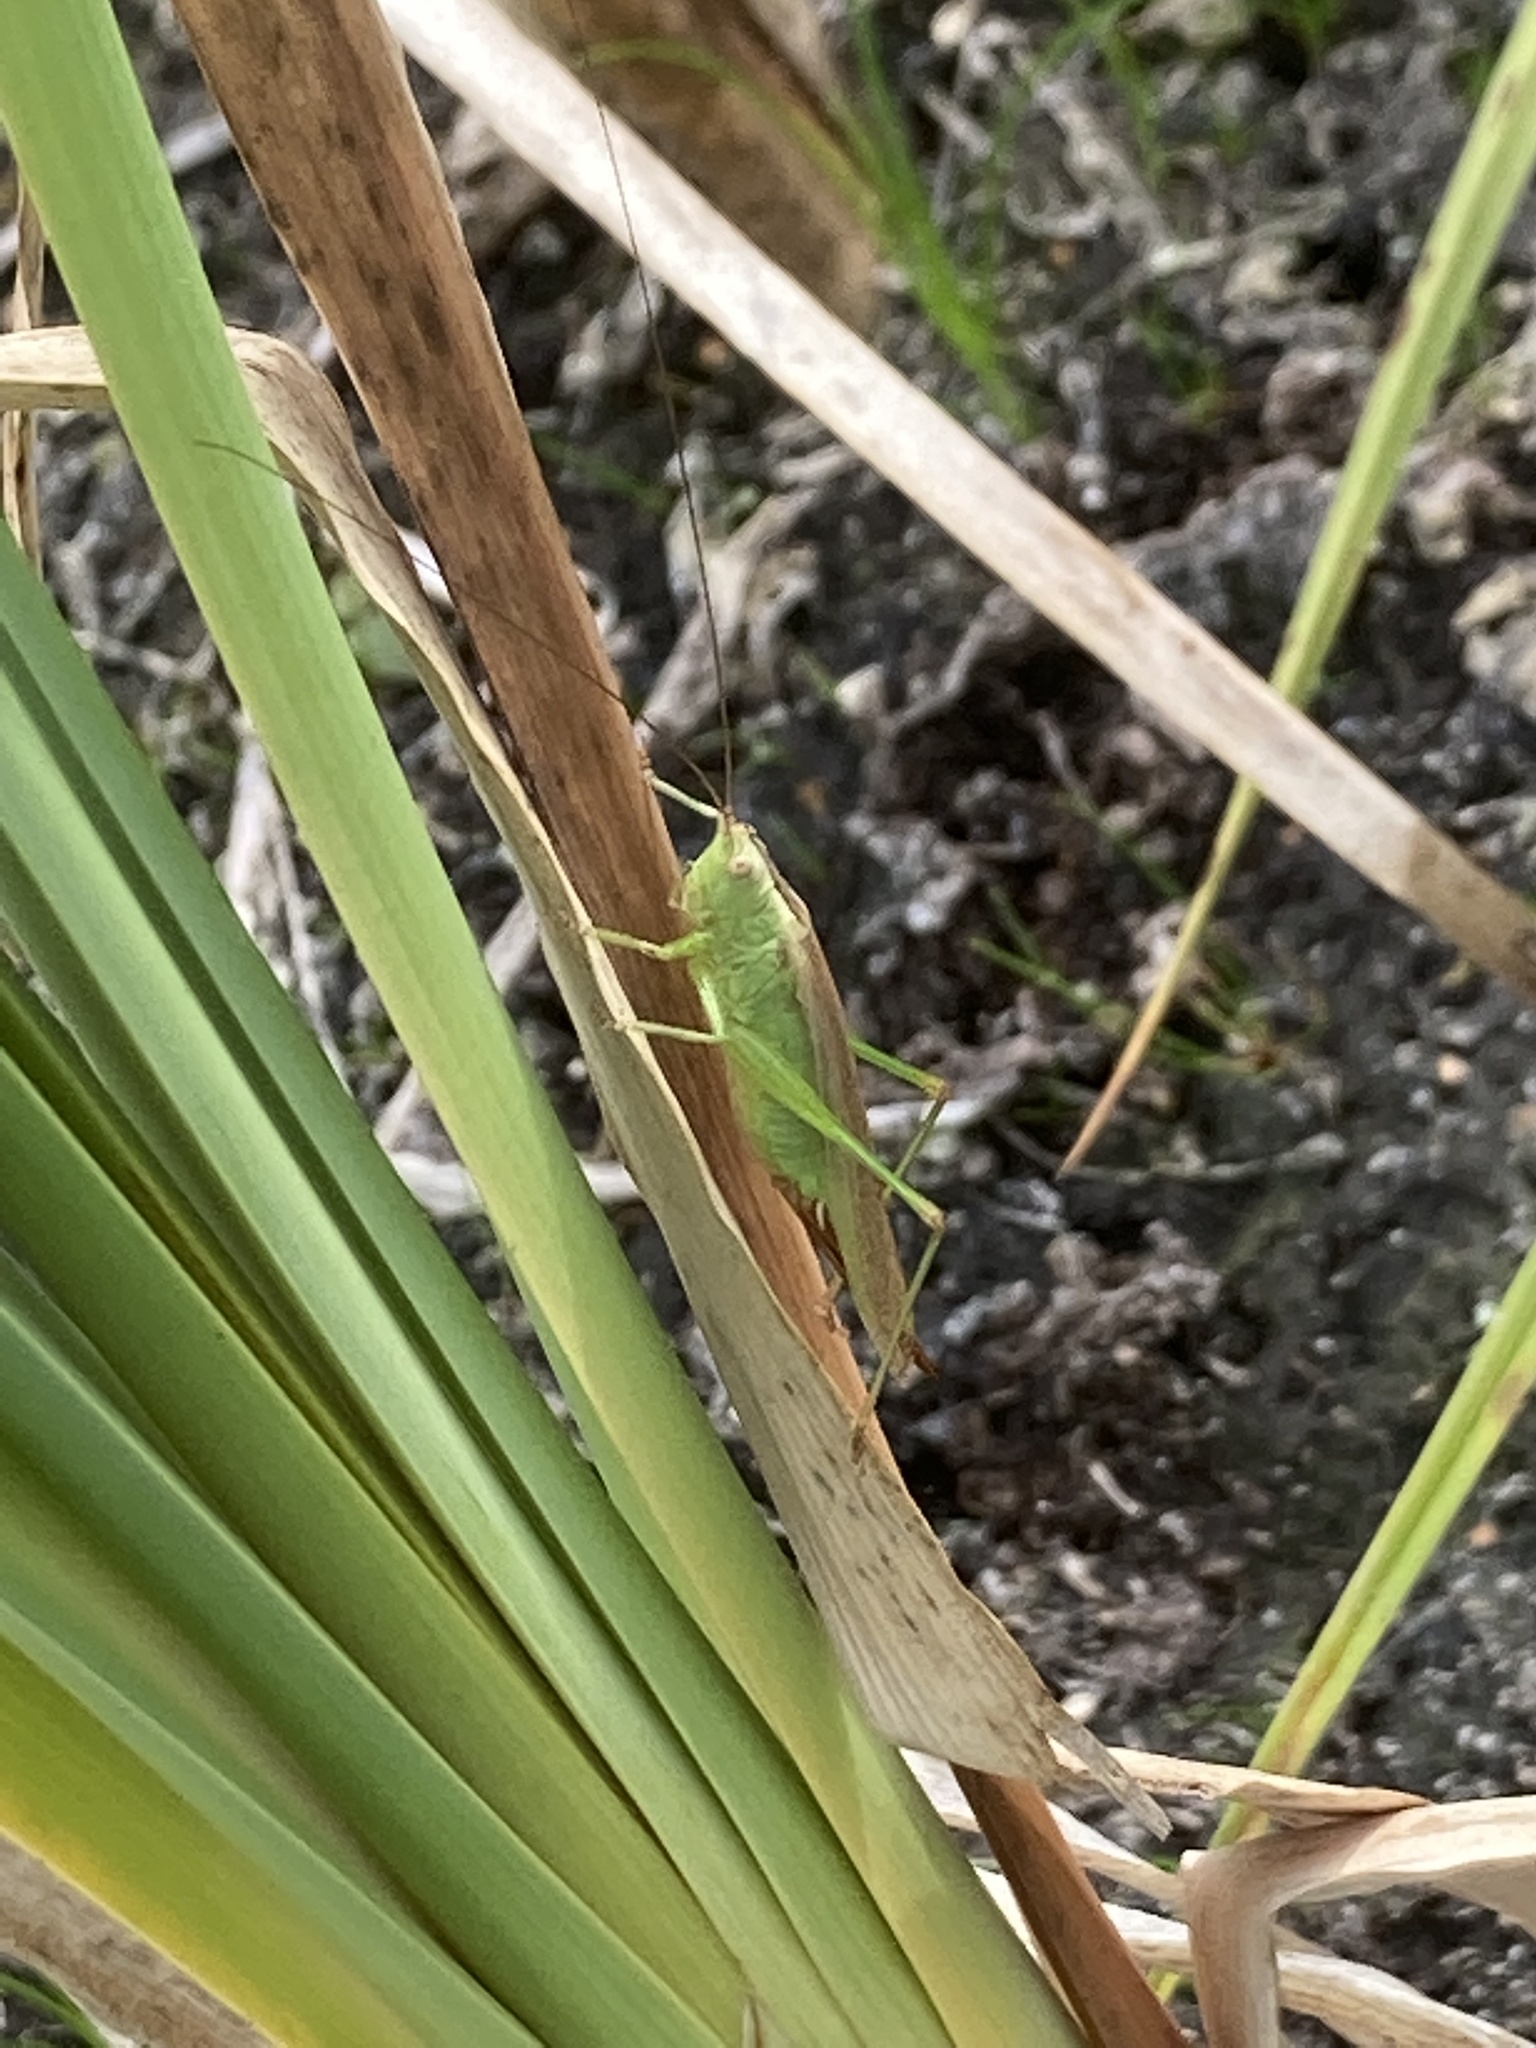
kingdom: Animalia
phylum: Arthropoda
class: Insecta
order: Orthoptera
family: Tettigoniidae
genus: Conocephalus
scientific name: Conocephalus fuscus
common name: Long-winged conehead
